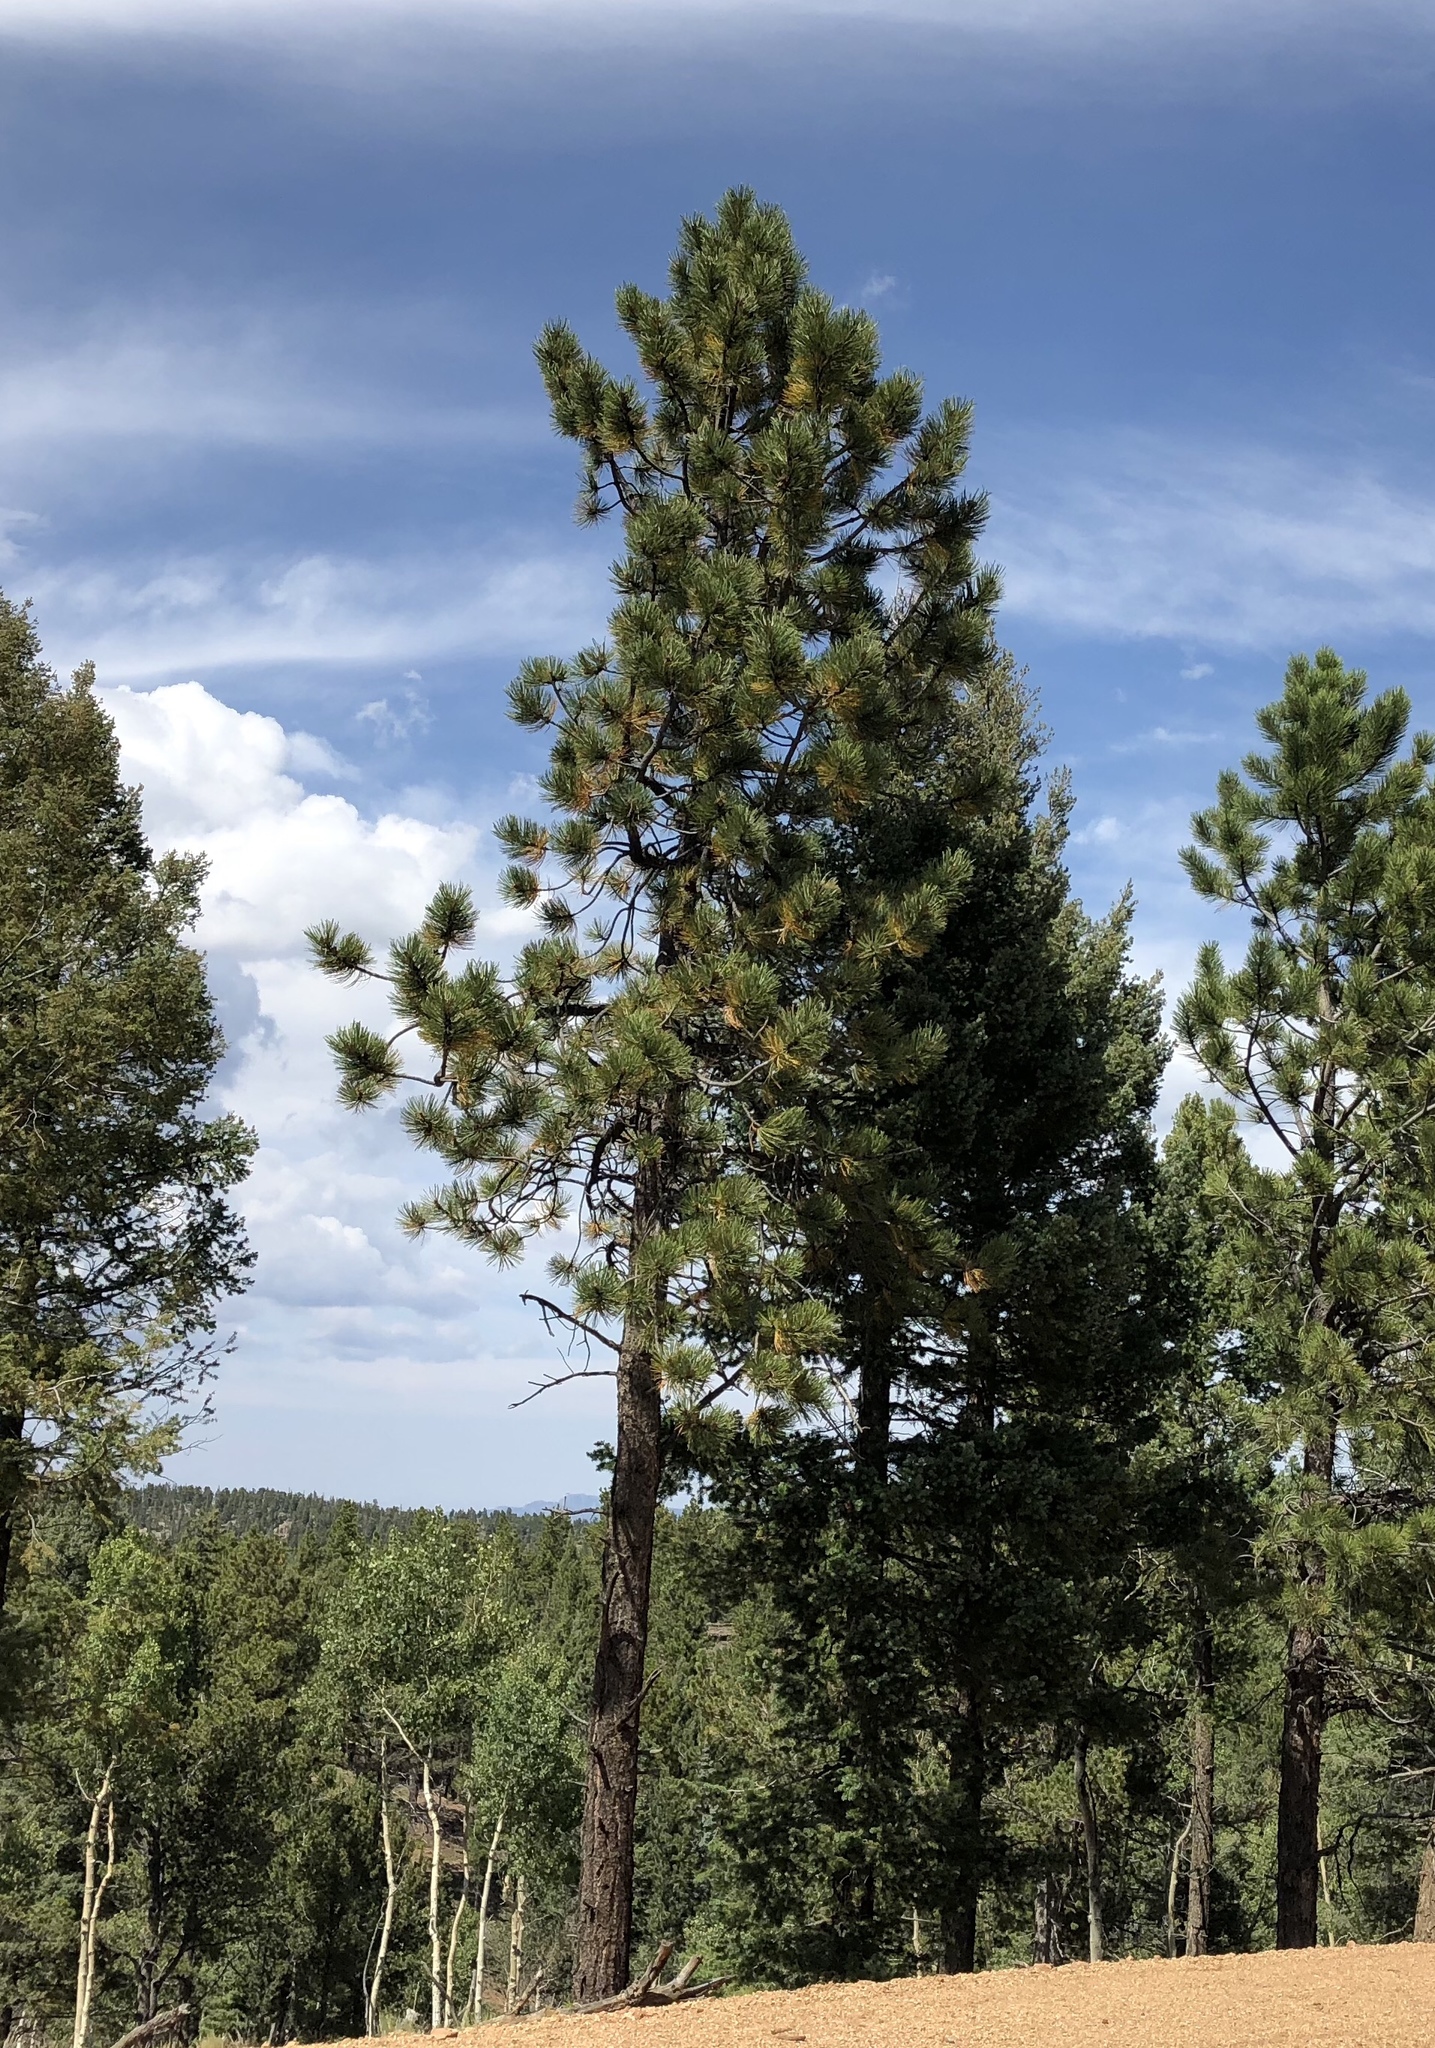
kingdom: Plantae
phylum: Tracheophyta
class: Pinopsida
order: Pinales
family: Pinaceae
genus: Pinus
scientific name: Pinus ponderosa
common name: Western yellow-pine
